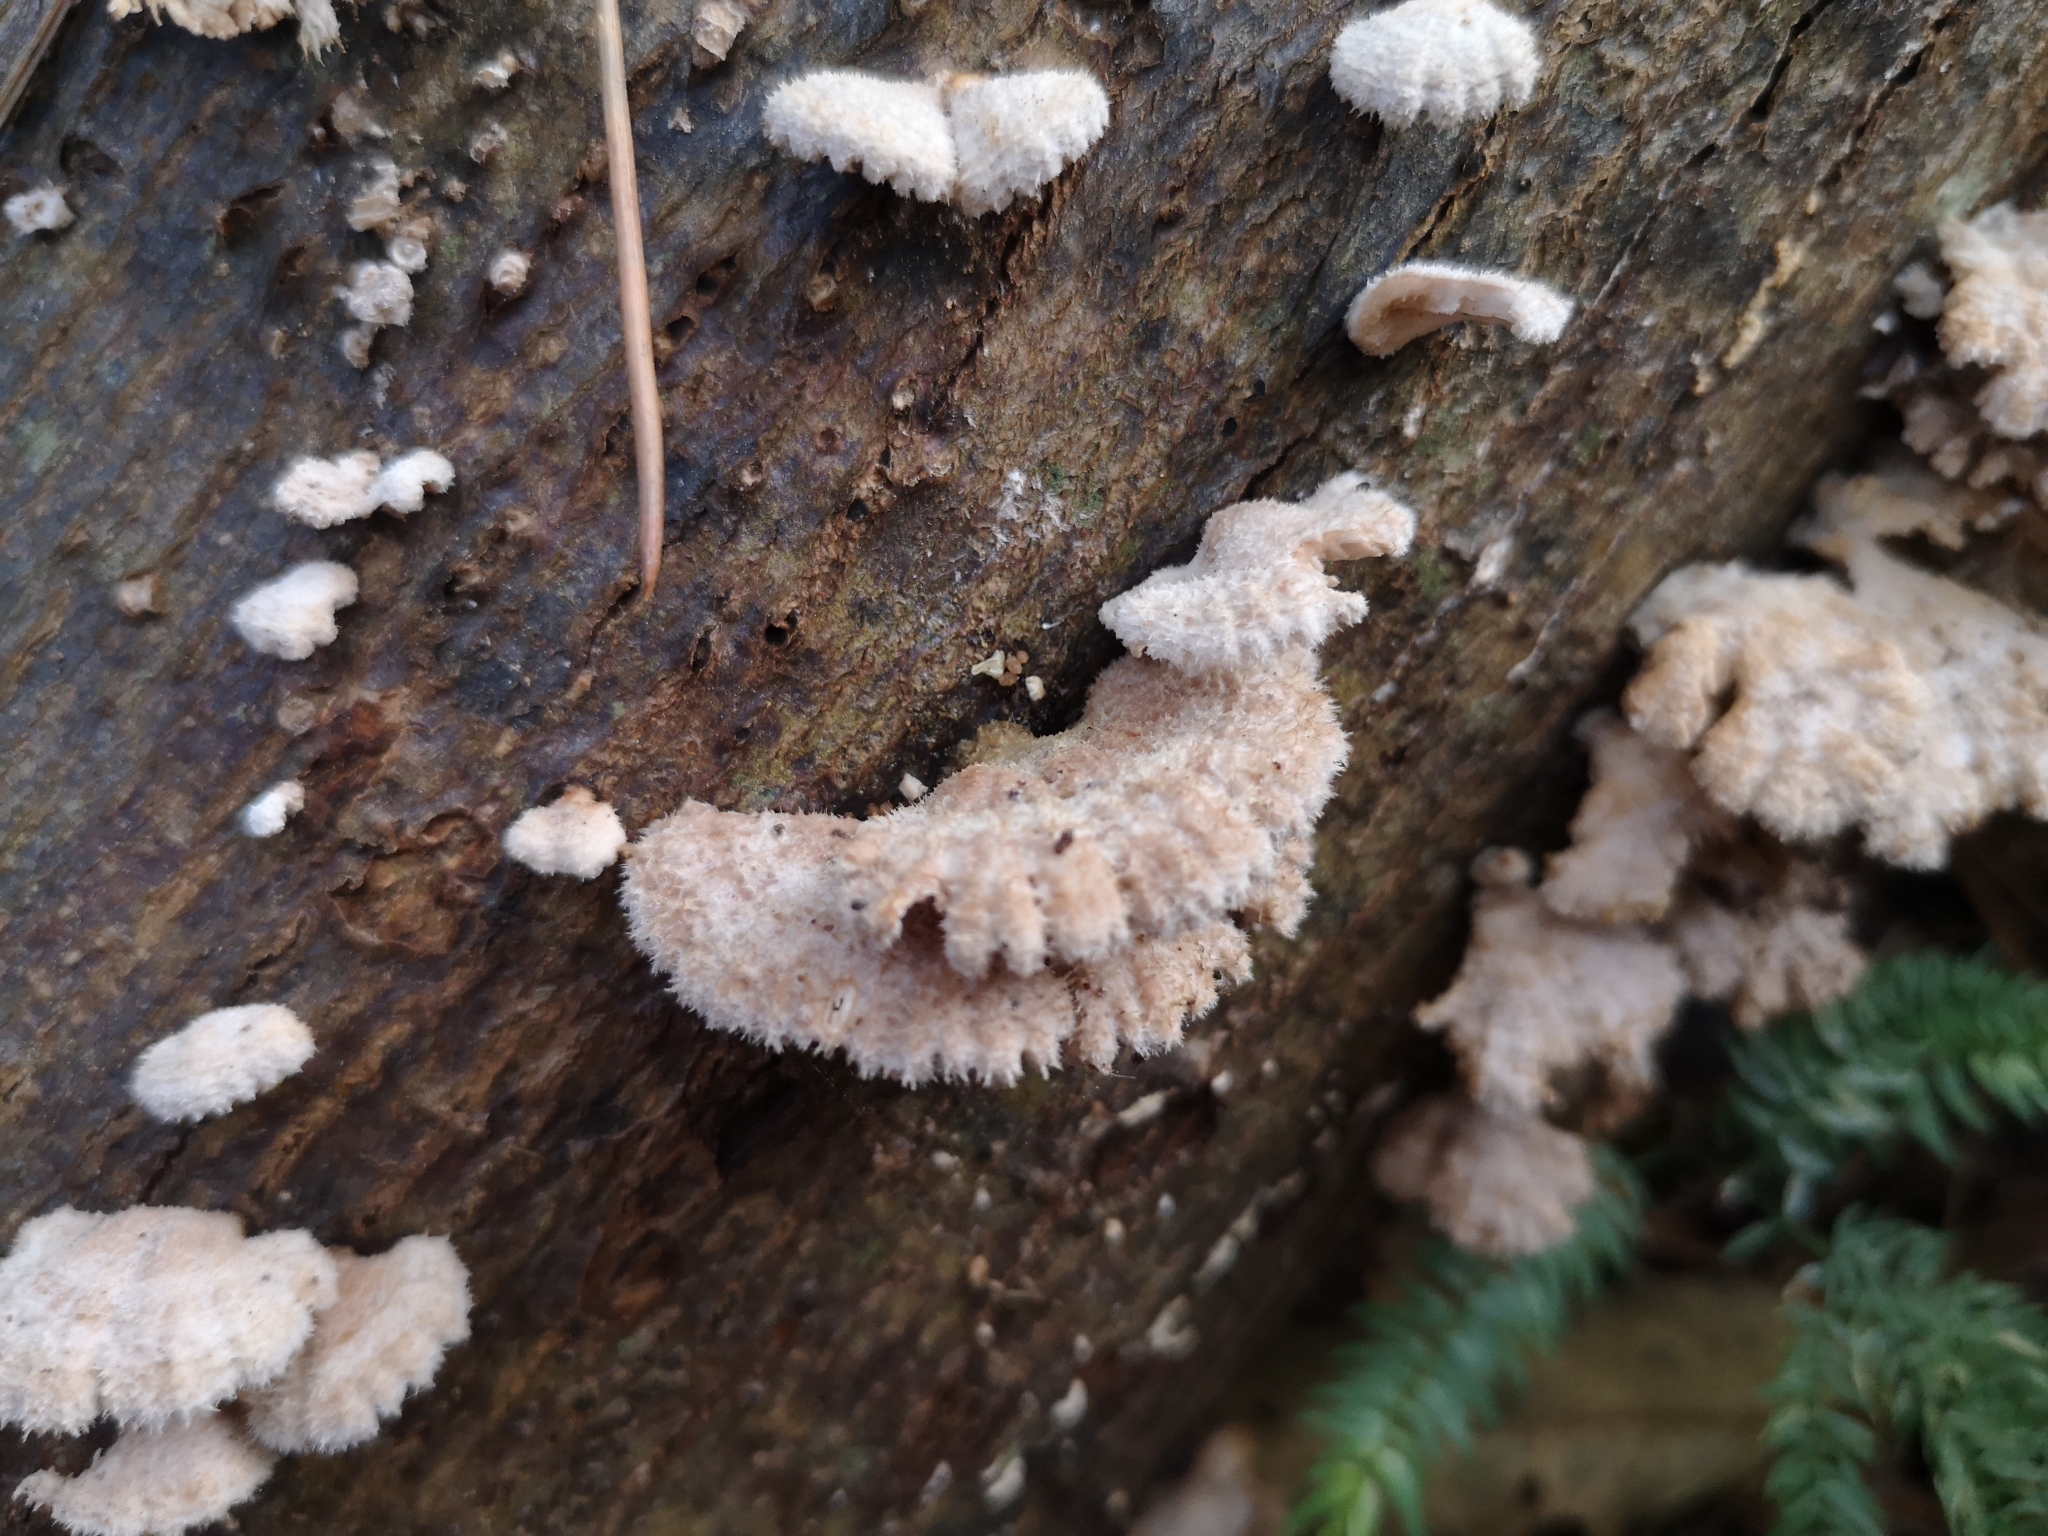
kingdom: Fungi
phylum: Basidiomycota
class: Agaricomycetes
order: Agaricales
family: Schizophyllaceae
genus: Schizophyllum
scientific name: Schizophyllum commune
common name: Common porecrust
